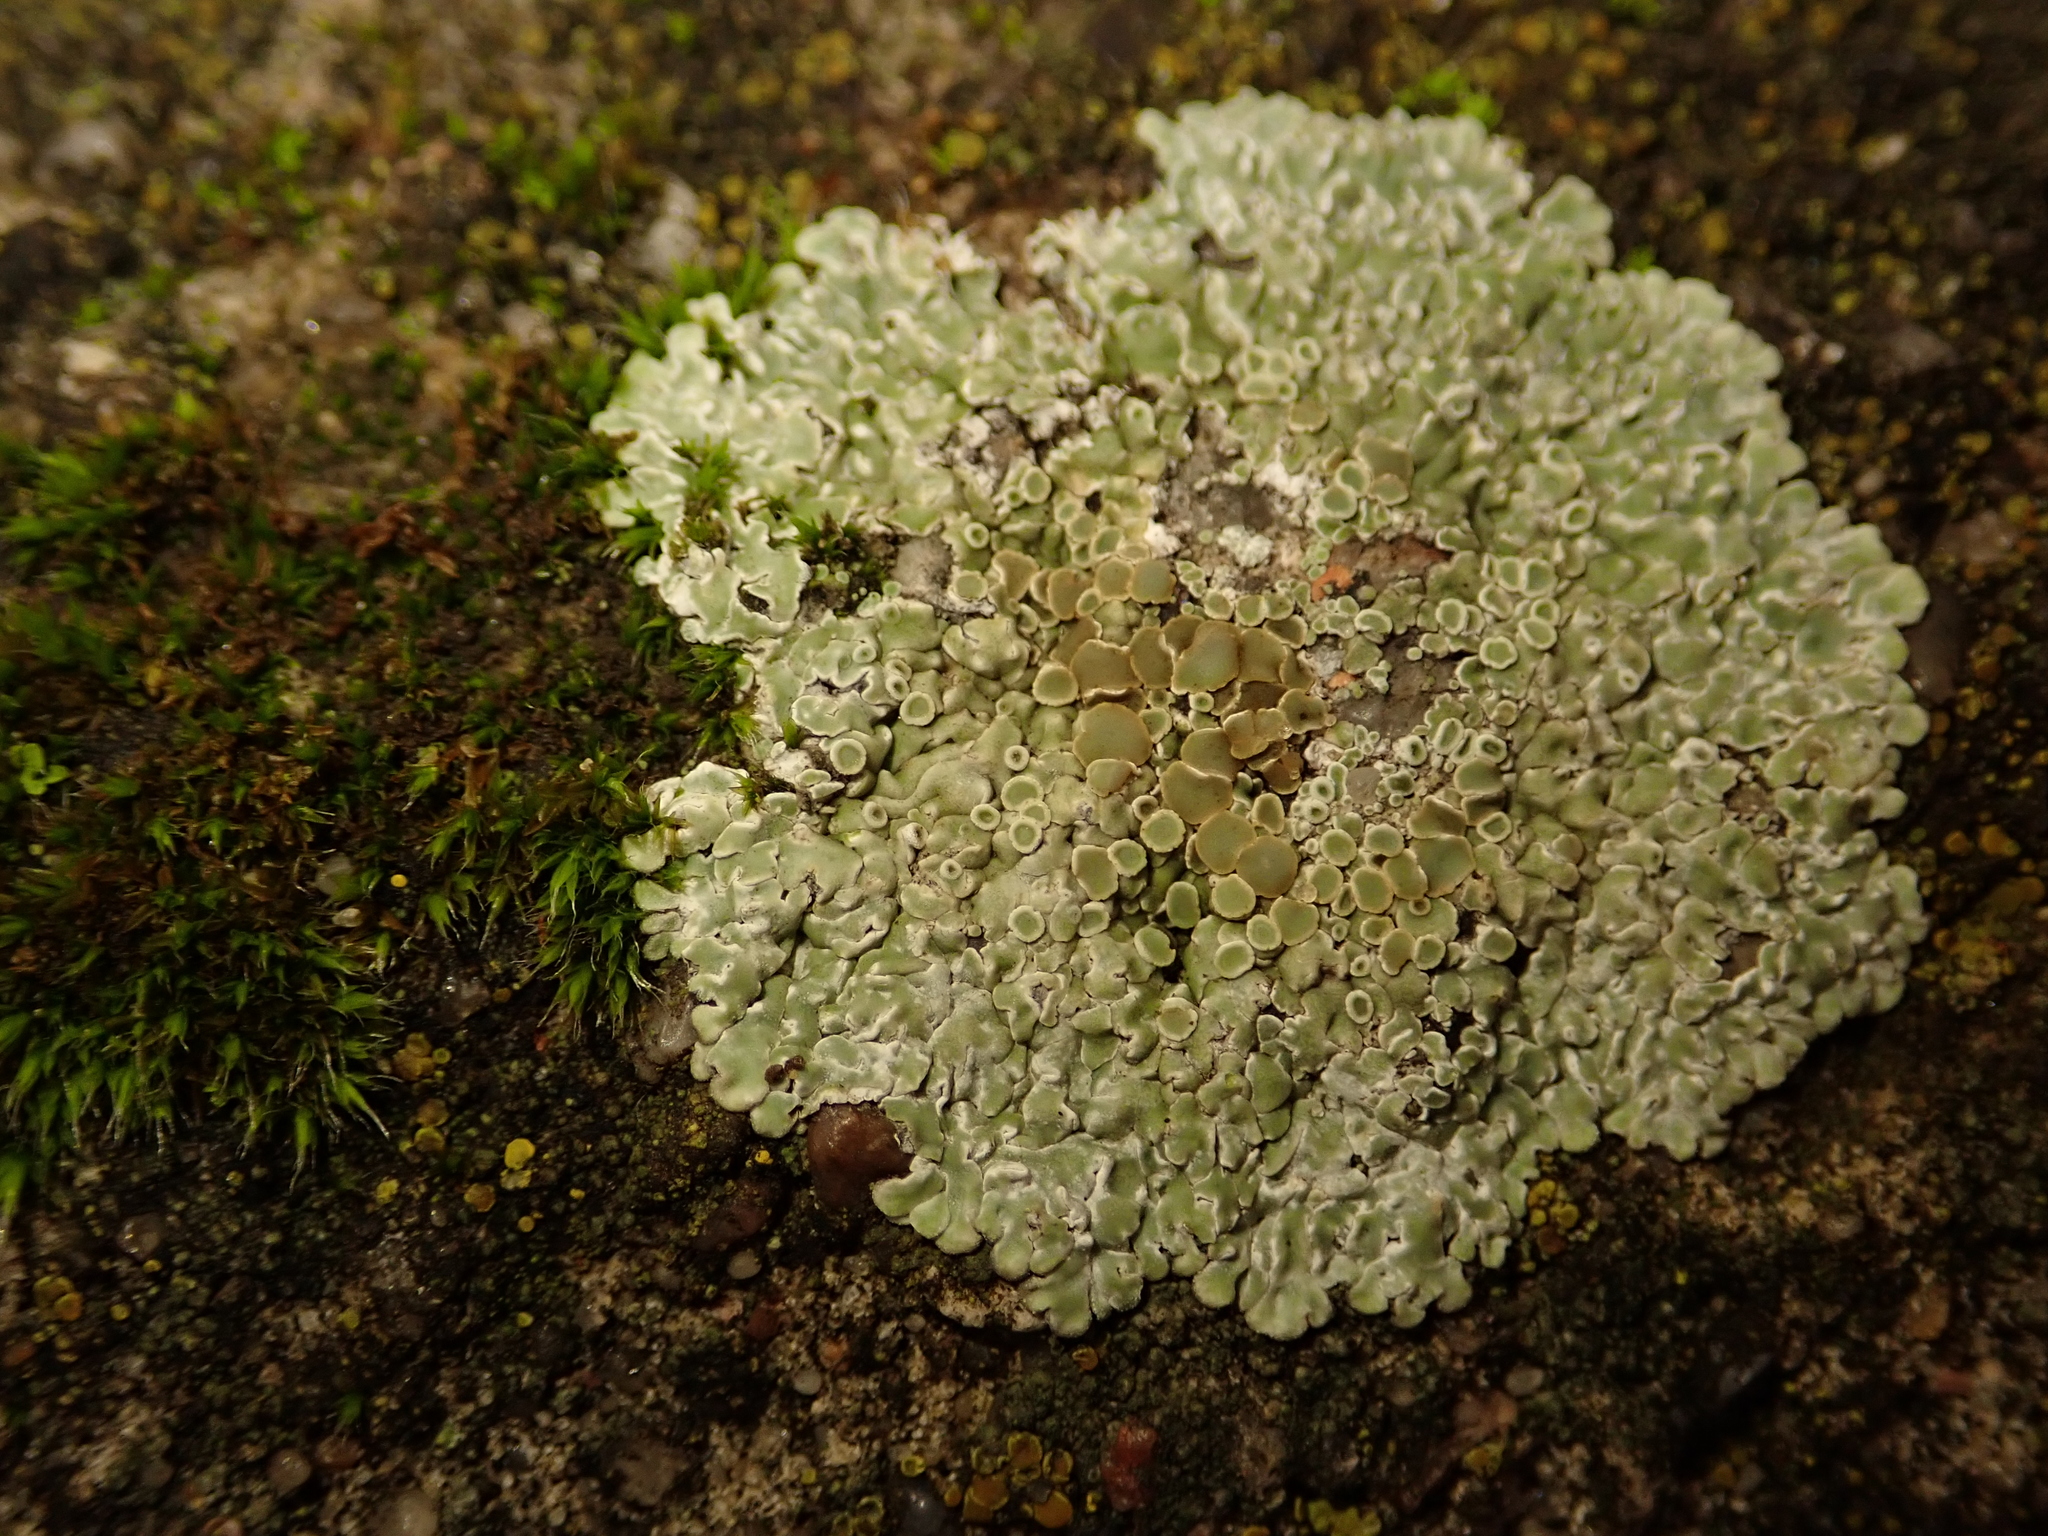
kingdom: Fungi
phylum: Ascomycota
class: Lecanoromycetes
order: Lecanorales
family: Lecanoraceae
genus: Protoparmeliopsis
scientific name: Protoparmeliopsis muralis
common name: Stonewall rim lichen
